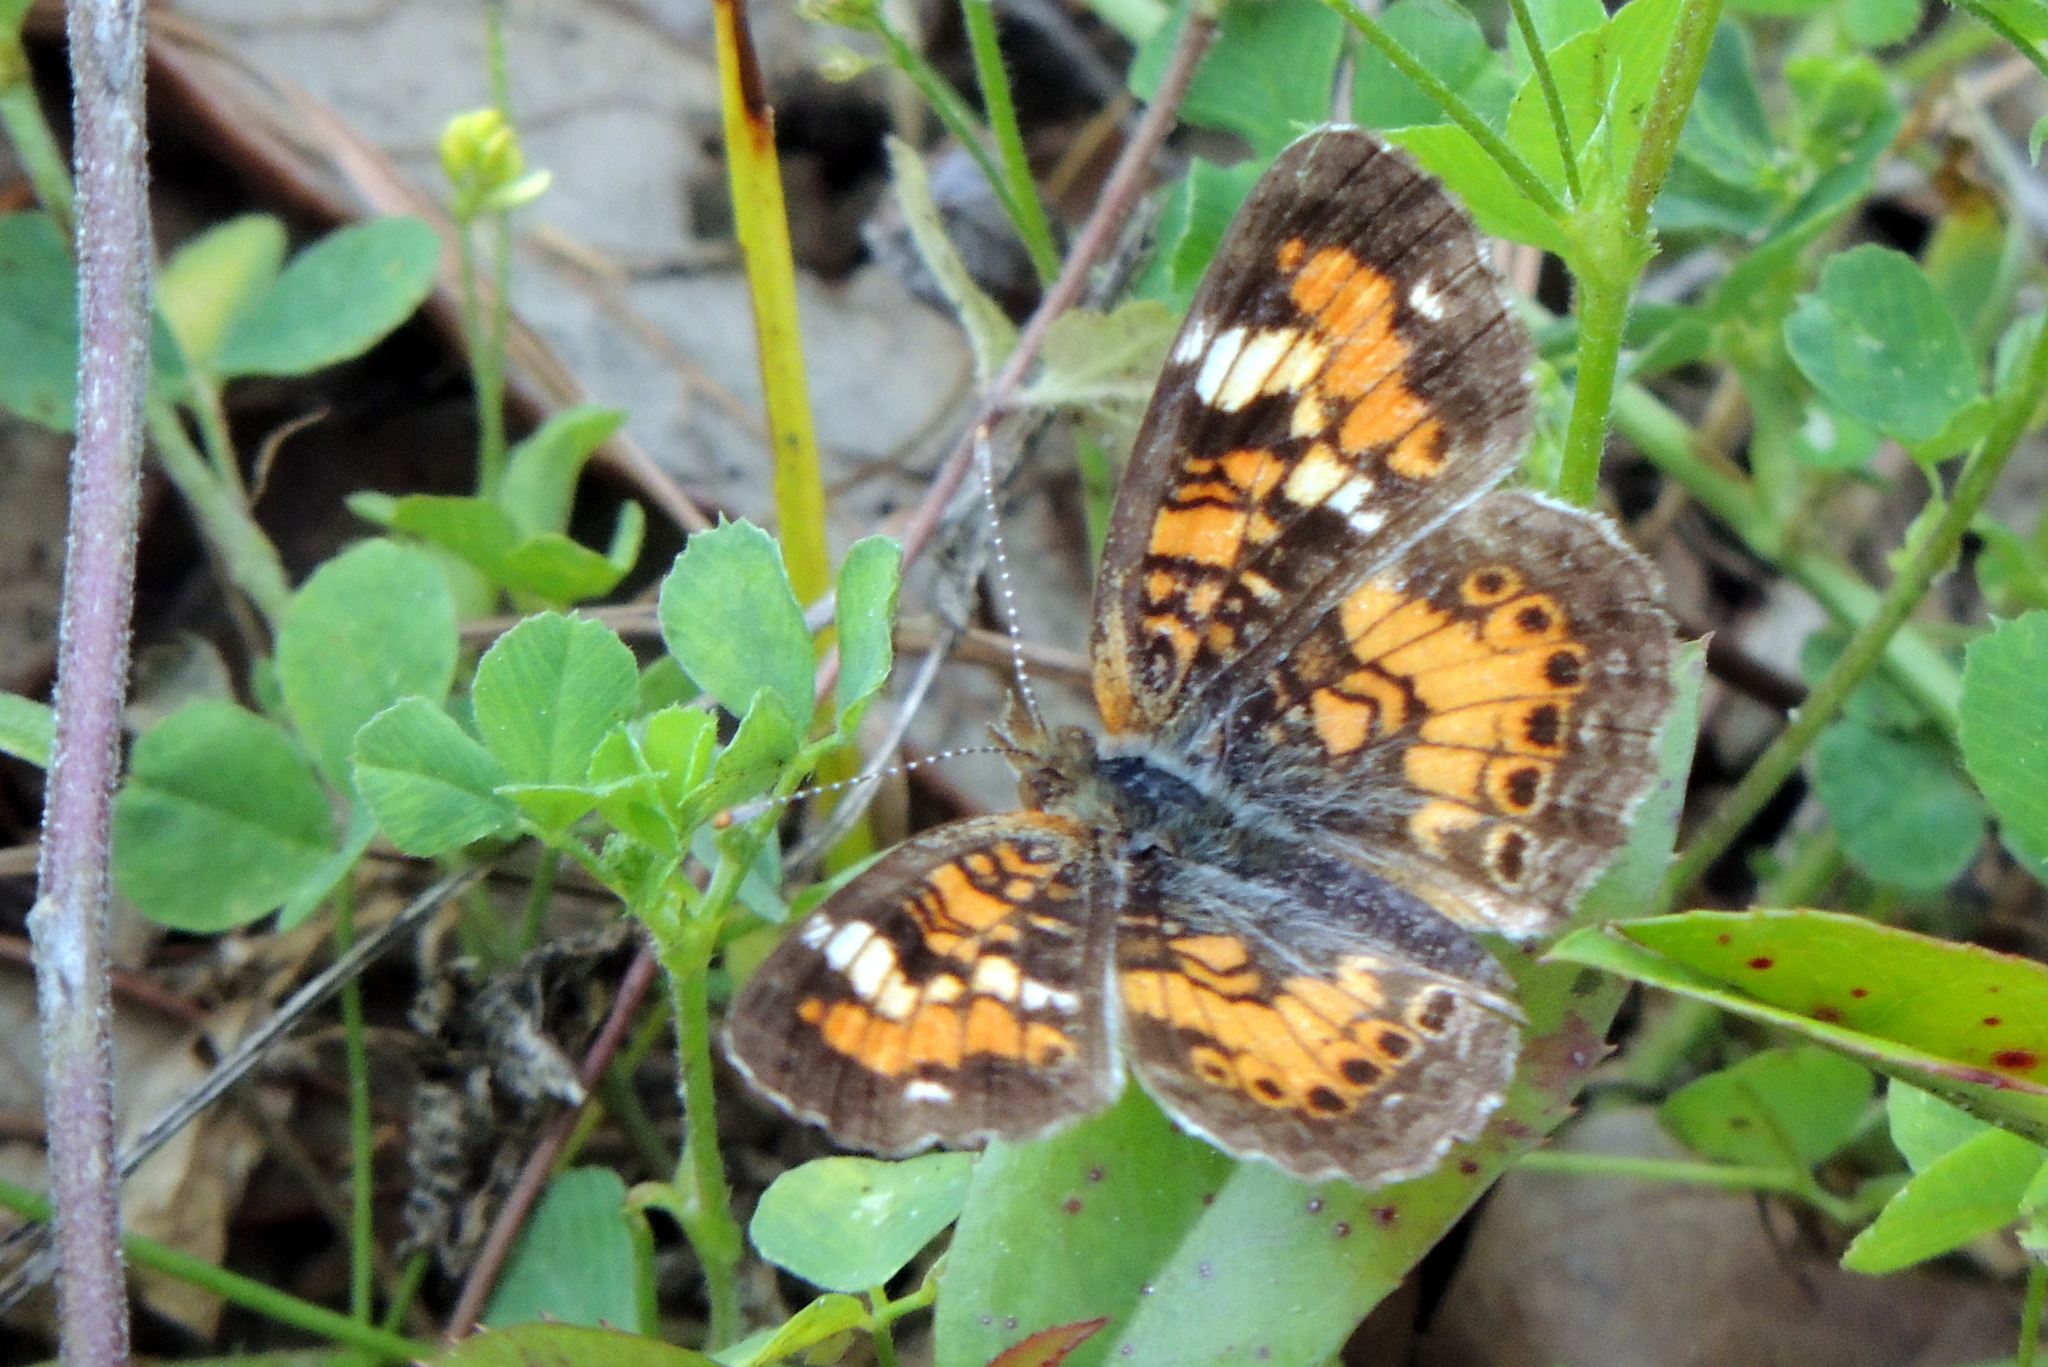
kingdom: Animalia
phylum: Arthropoda
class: Insecta
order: Lepidoptera
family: Nymphalidae
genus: Phyciodes
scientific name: Phyciodes phaon
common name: Phaon crescent
